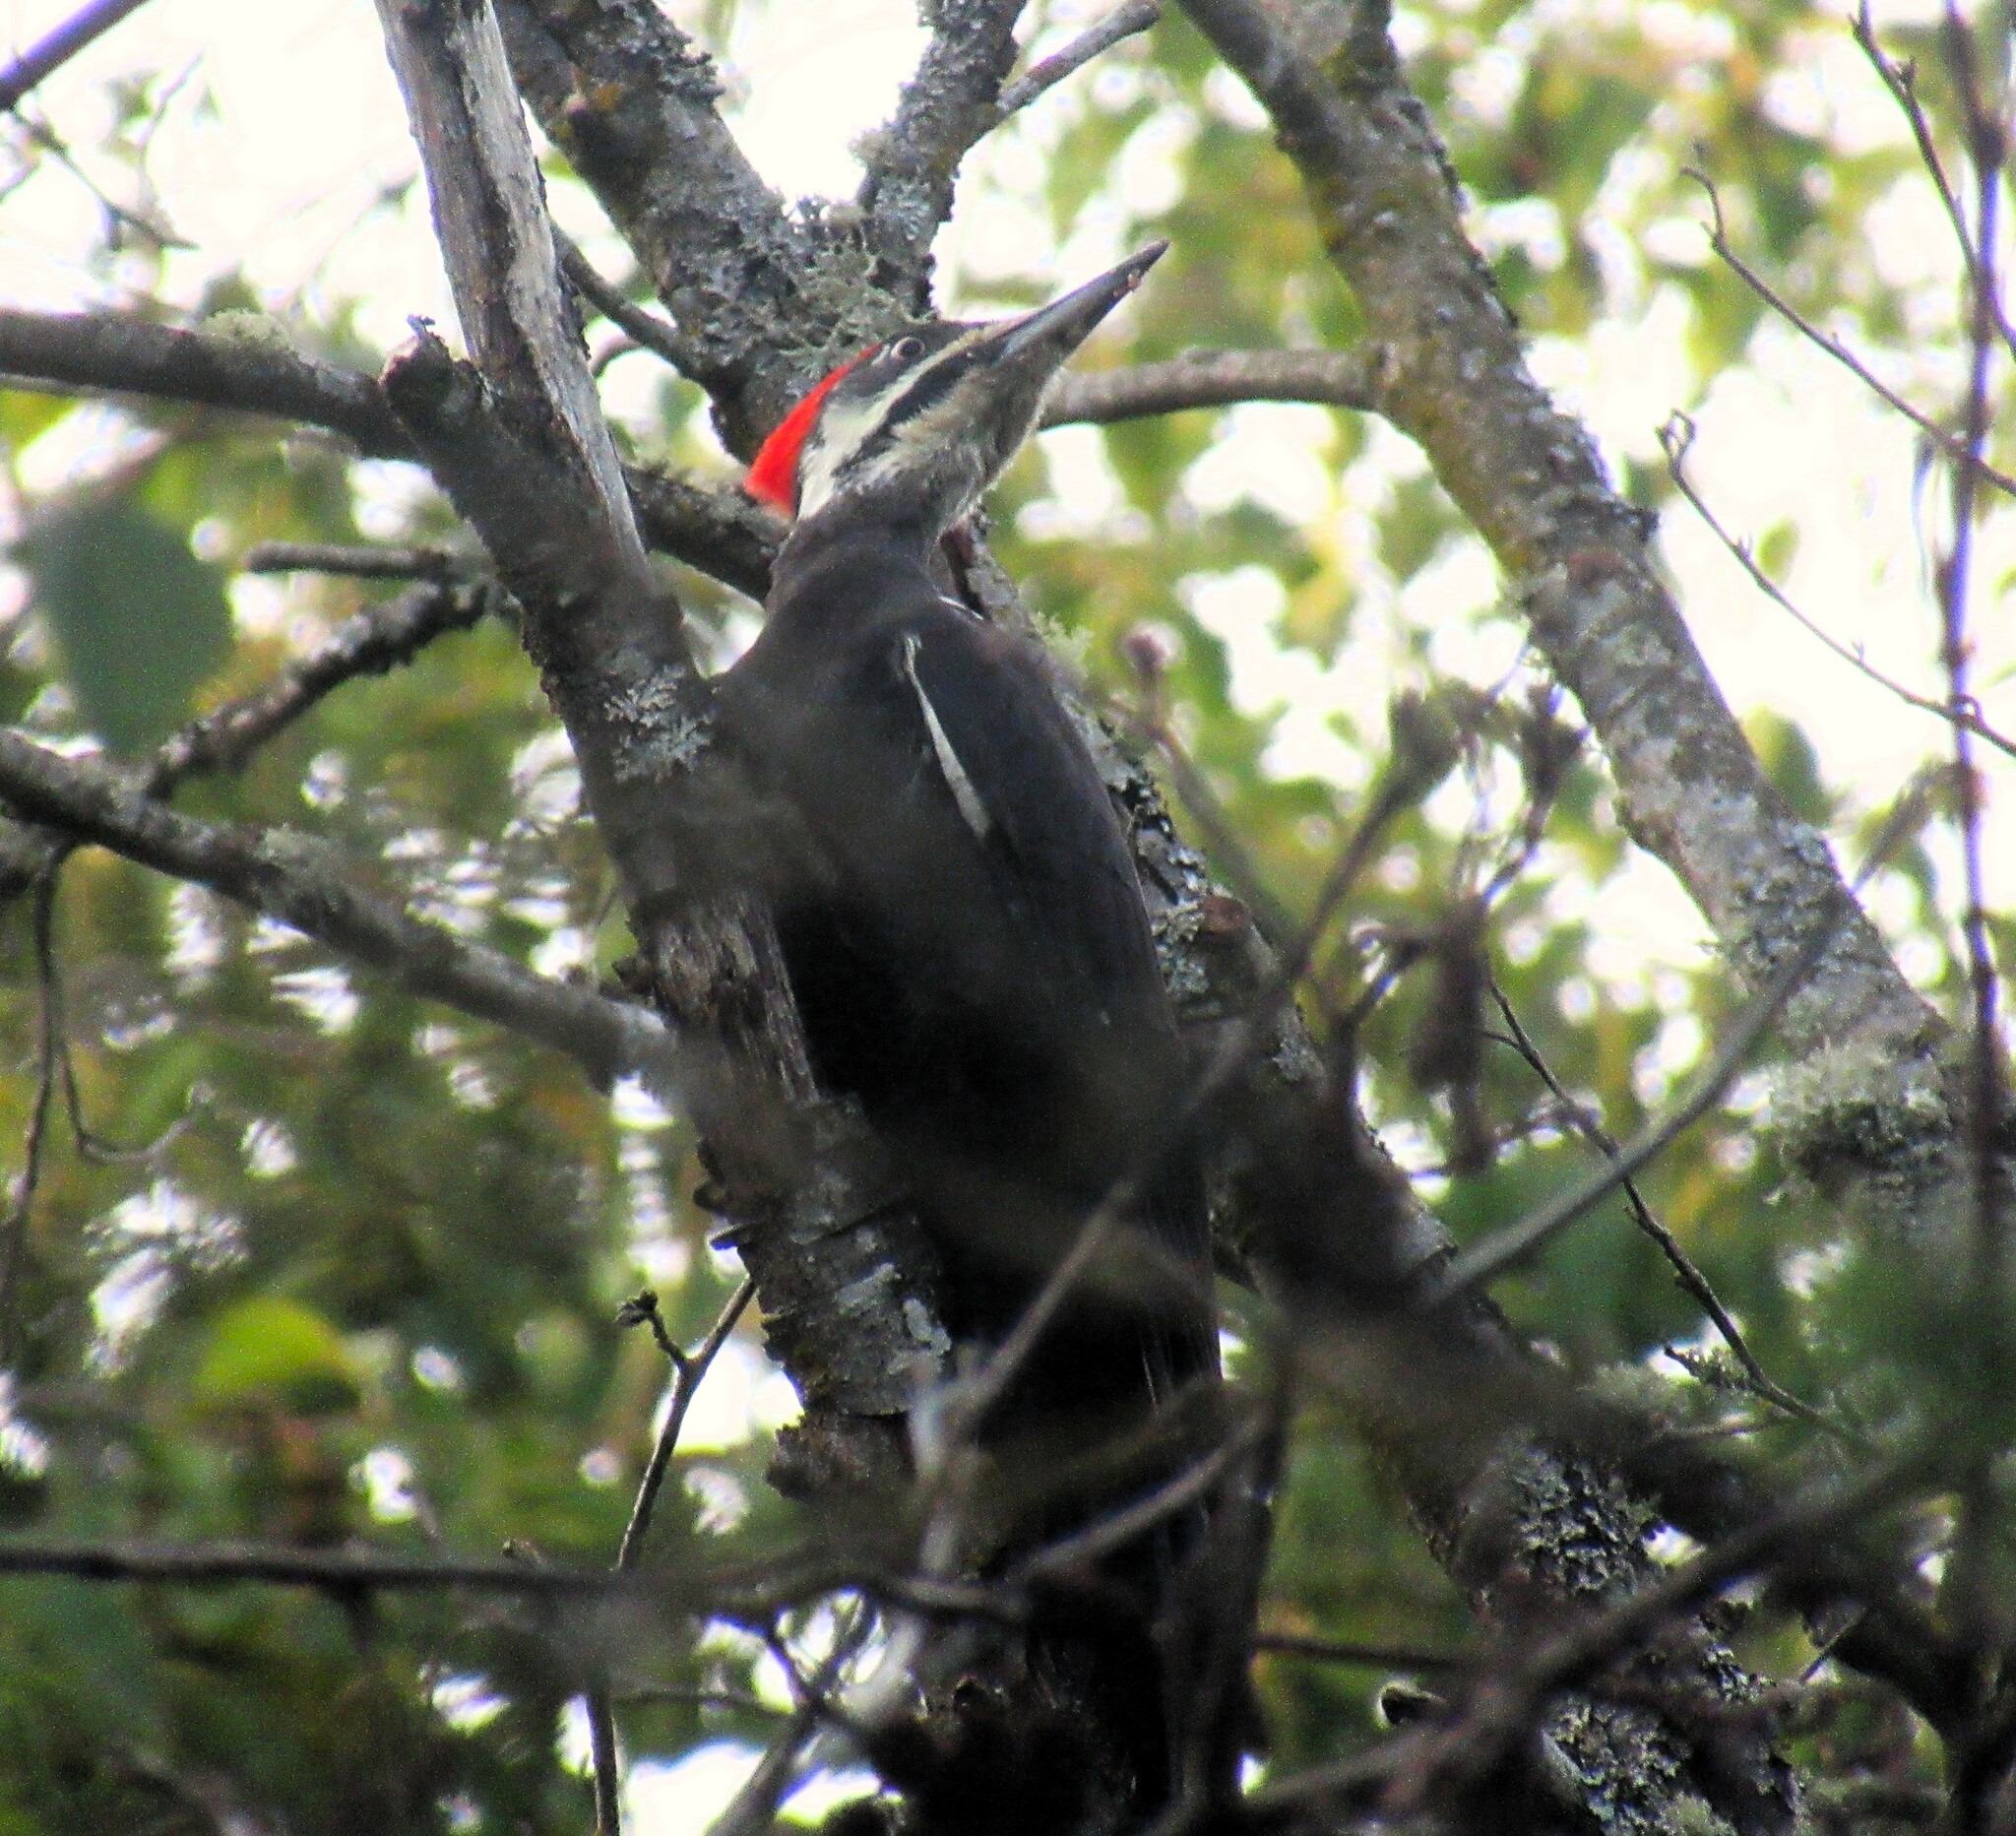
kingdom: Animalia
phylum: Chordata
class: Aves
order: Piciformes
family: Picidae
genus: Dryocopus
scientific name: Dryocopus pileatus
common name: Pileated woodpecker
